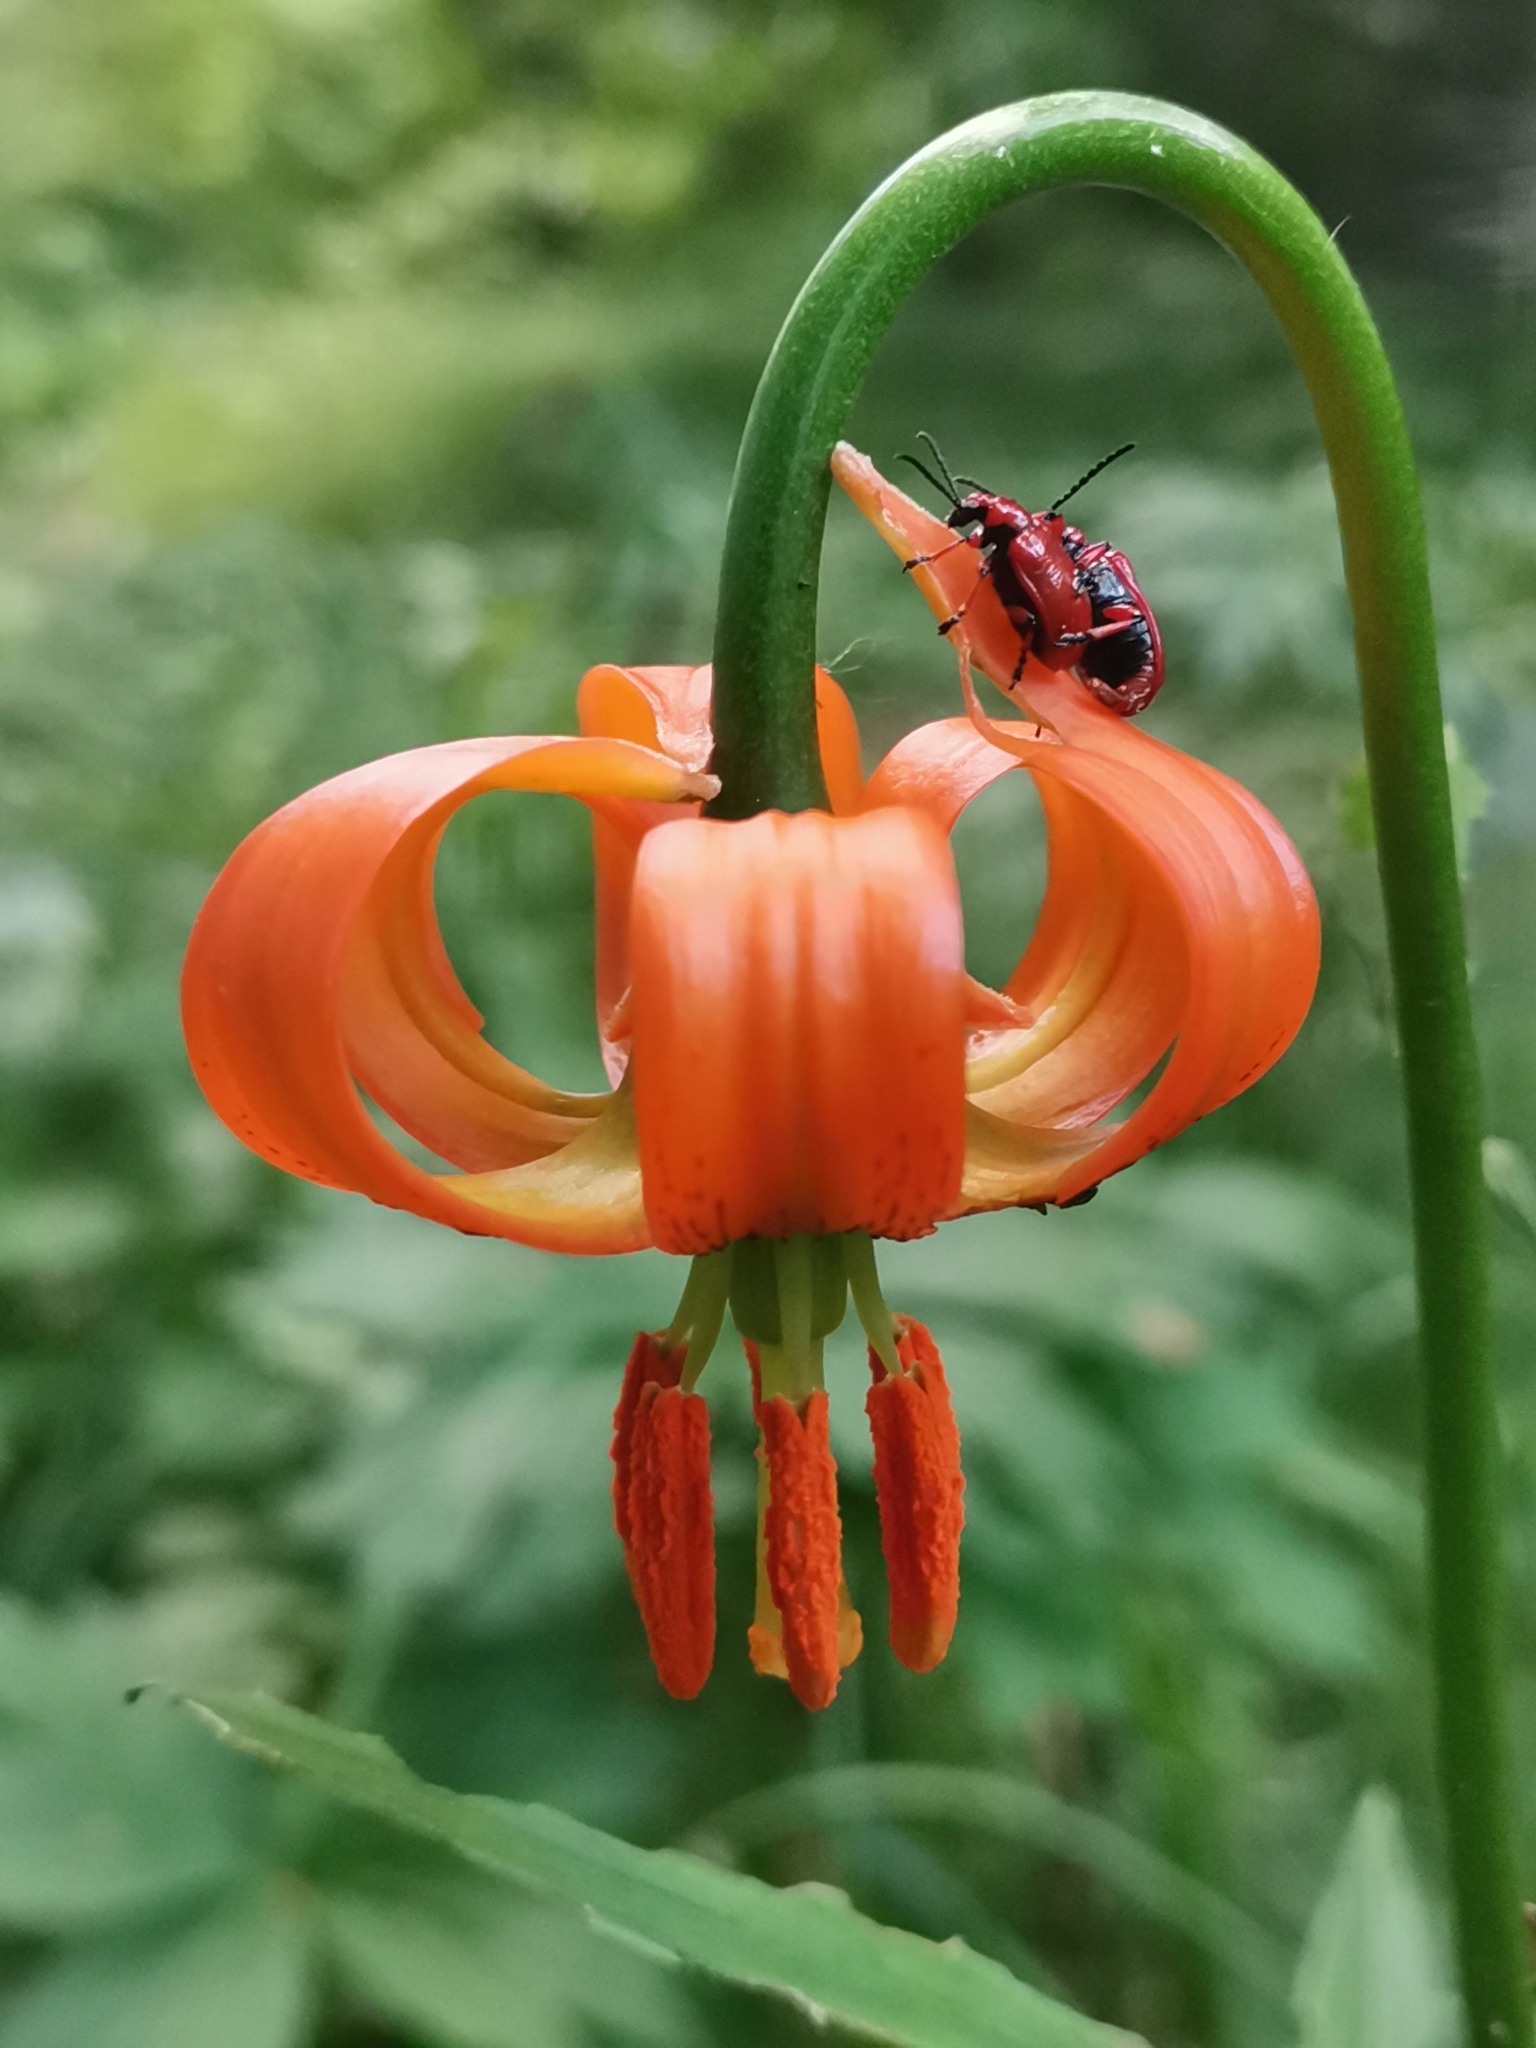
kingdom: Plantae
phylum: Tracheophyta
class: Liliopsida
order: Liliales
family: Liliaceae
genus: Lilium
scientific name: Lilium carniolicum
